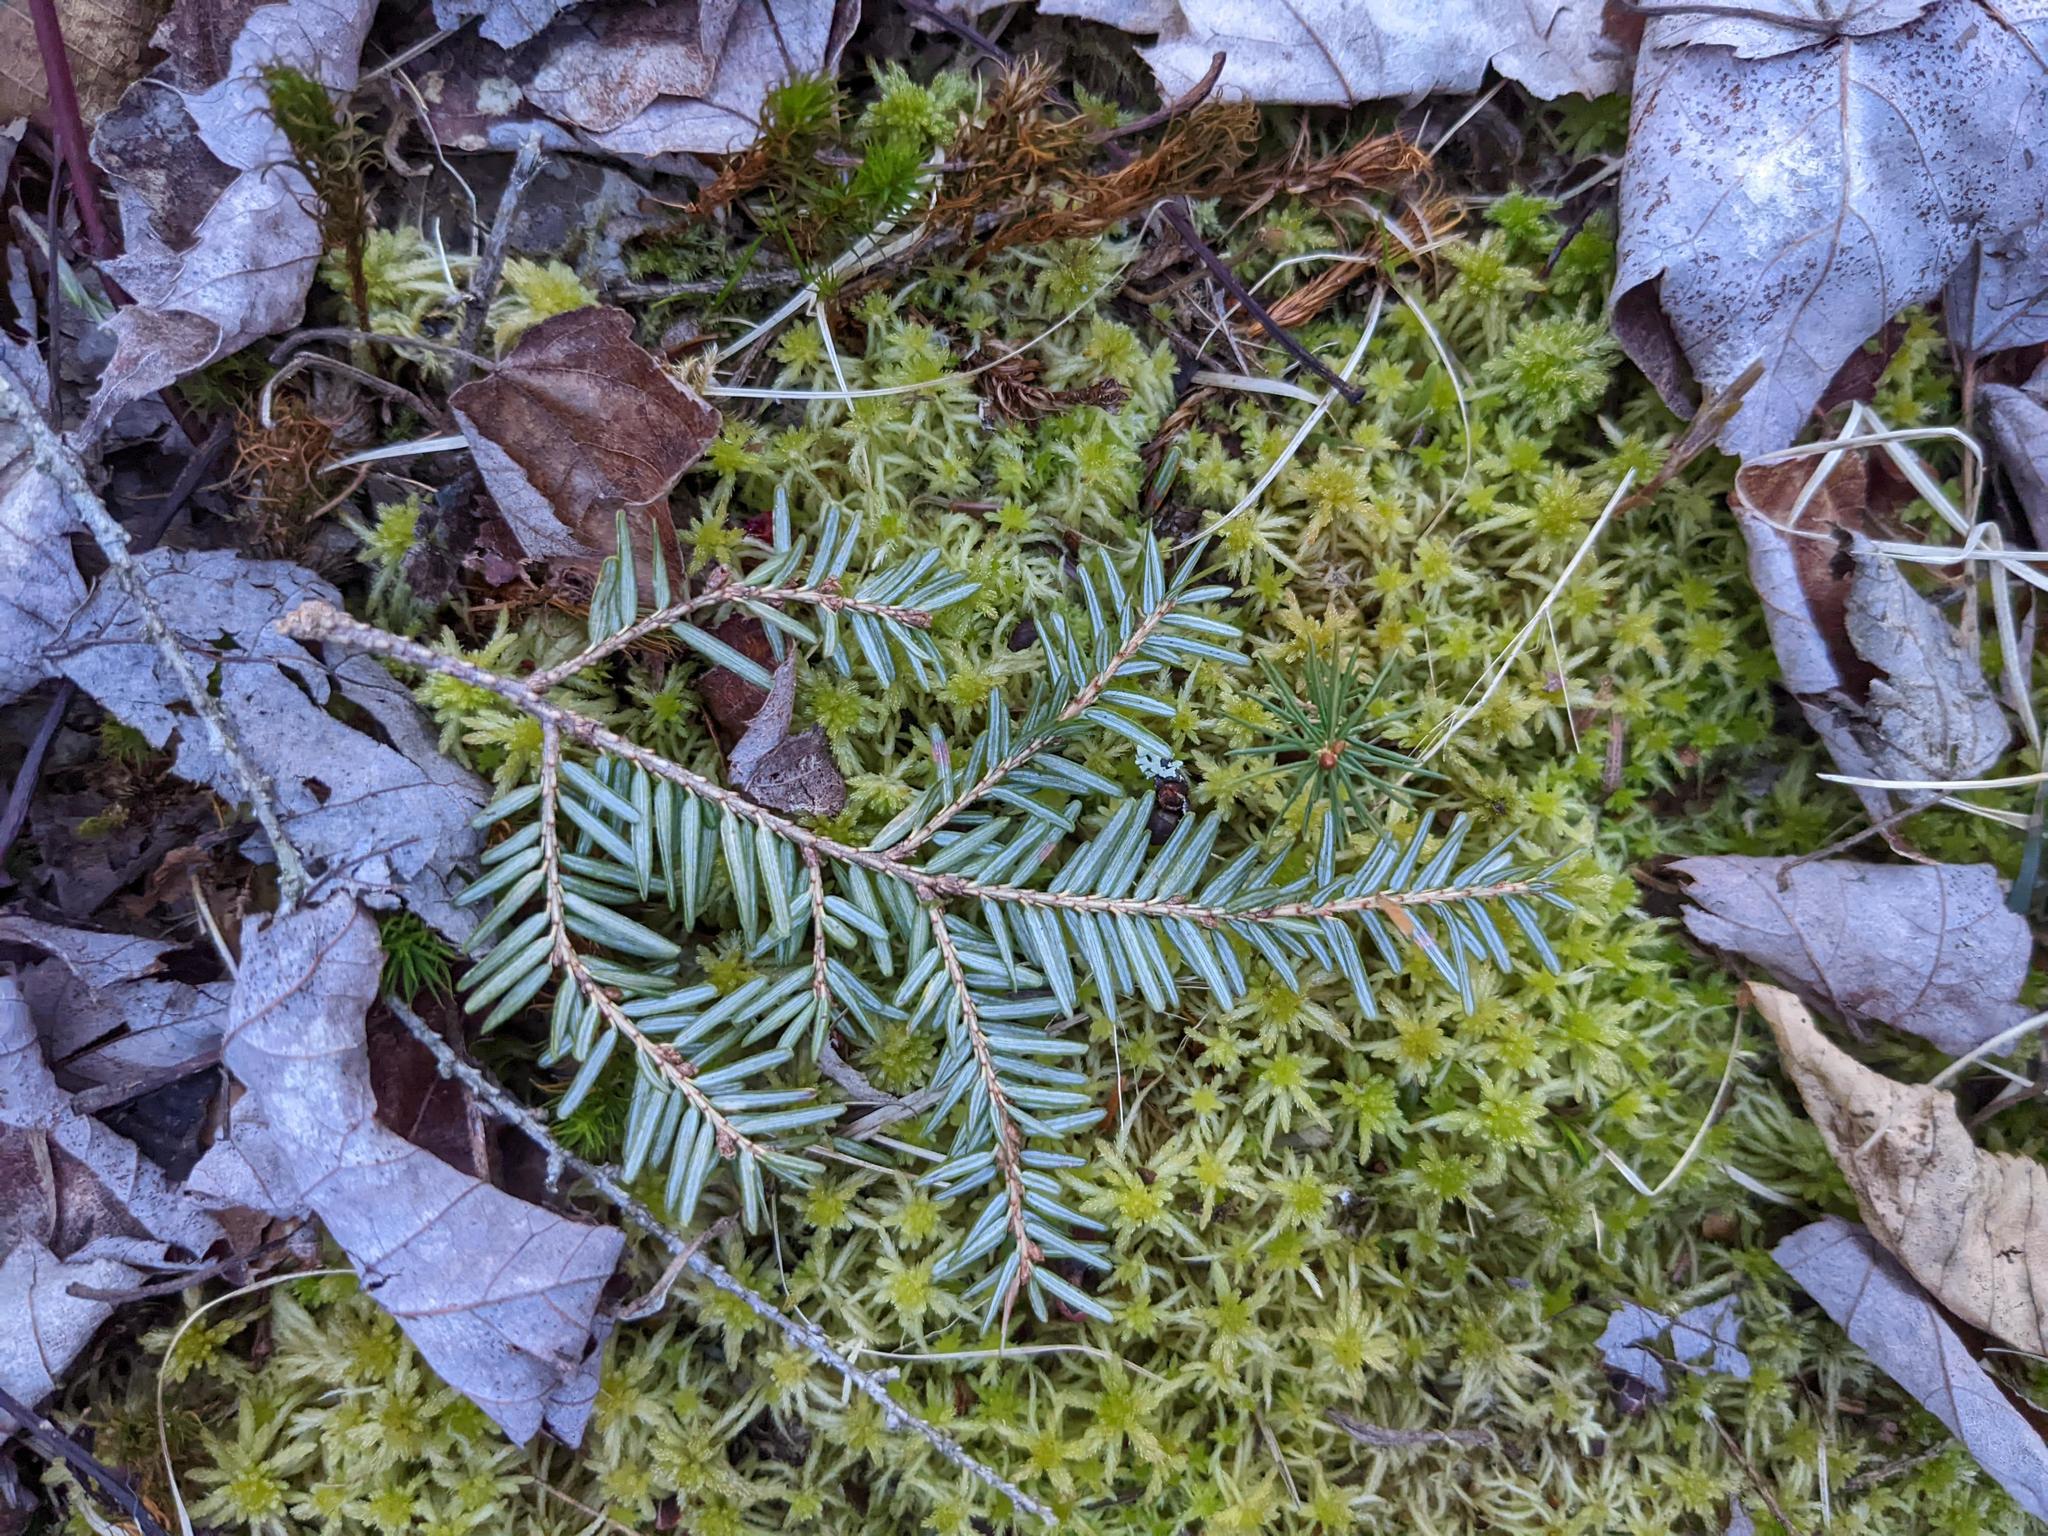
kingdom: Plantae
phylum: Tracheophyta
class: Pinopsida
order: Pinales
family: Pinaceae
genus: Tsuga
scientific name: Tsuga canadensis
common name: Eastern hemlock
